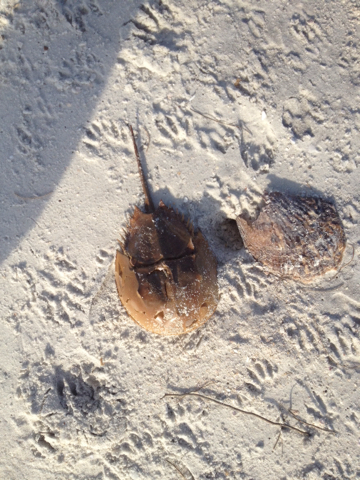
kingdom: Animalia
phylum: Chordata
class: Mammalia
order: Carnivora
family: Procyonidae
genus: Procyon
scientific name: Procyon lotor
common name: Raccoon
